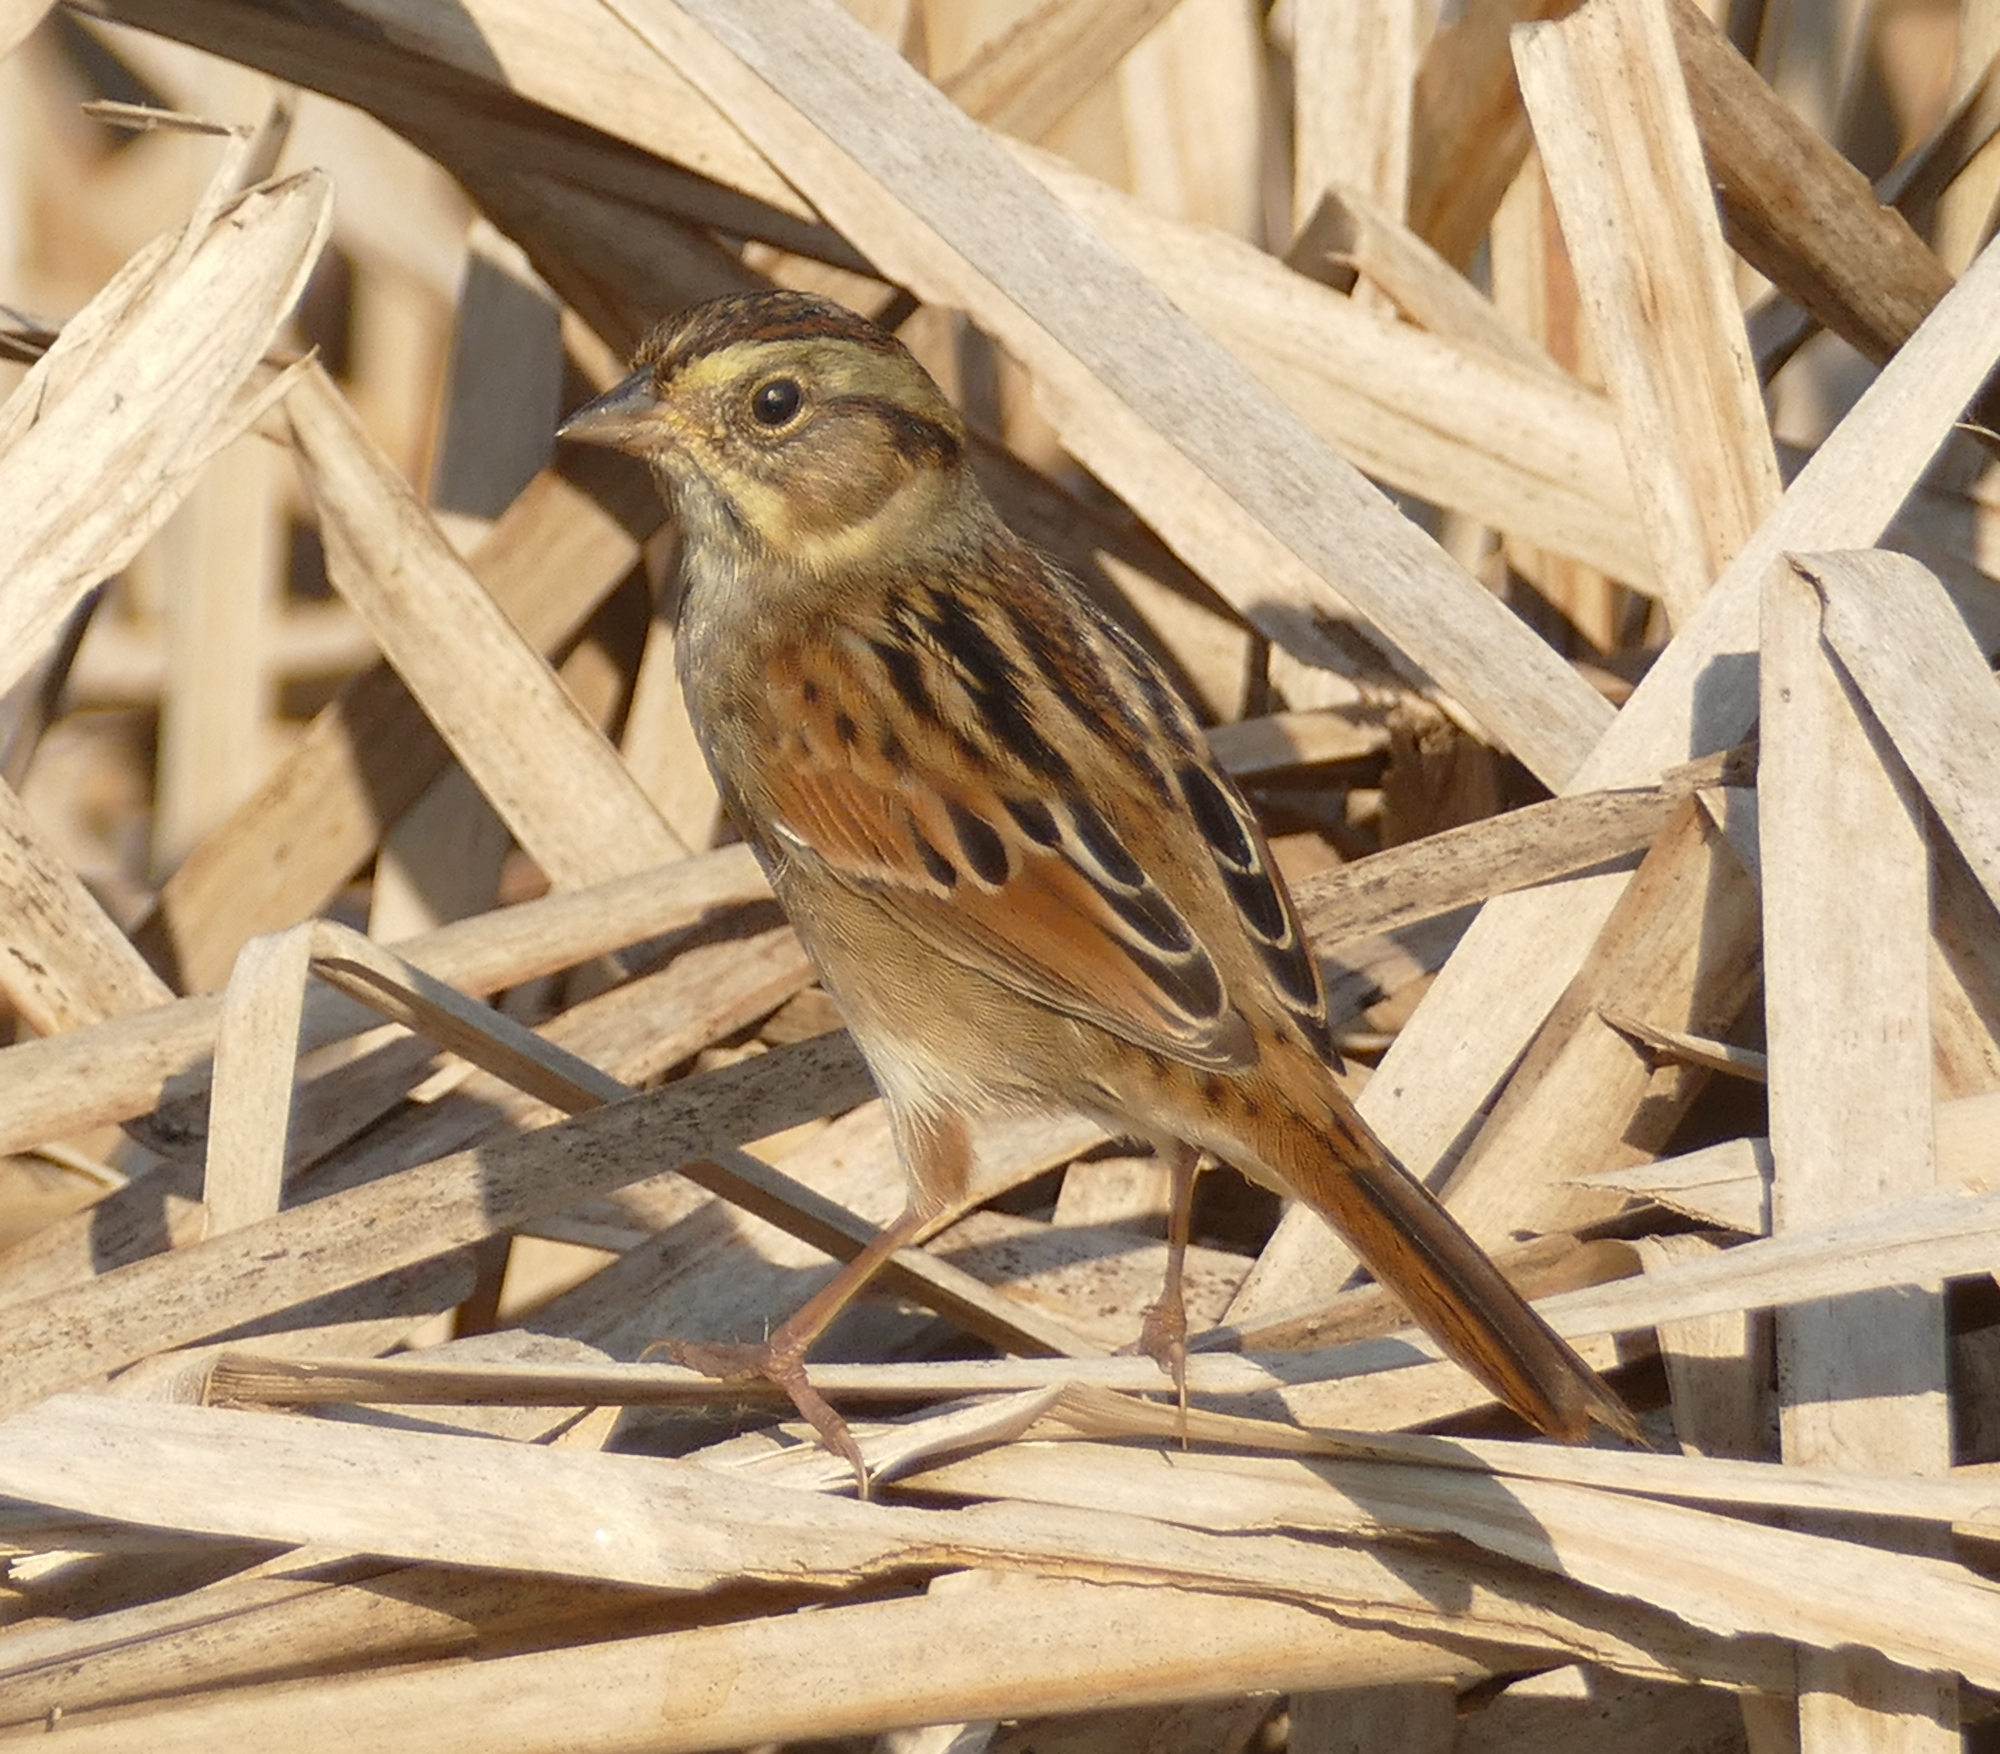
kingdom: Animalia
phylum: Chordata
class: Aves
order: Passeriformes
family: Passerellidae
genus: Melospiza
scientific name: Melospiza georgiana
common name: Swamp sparrow
